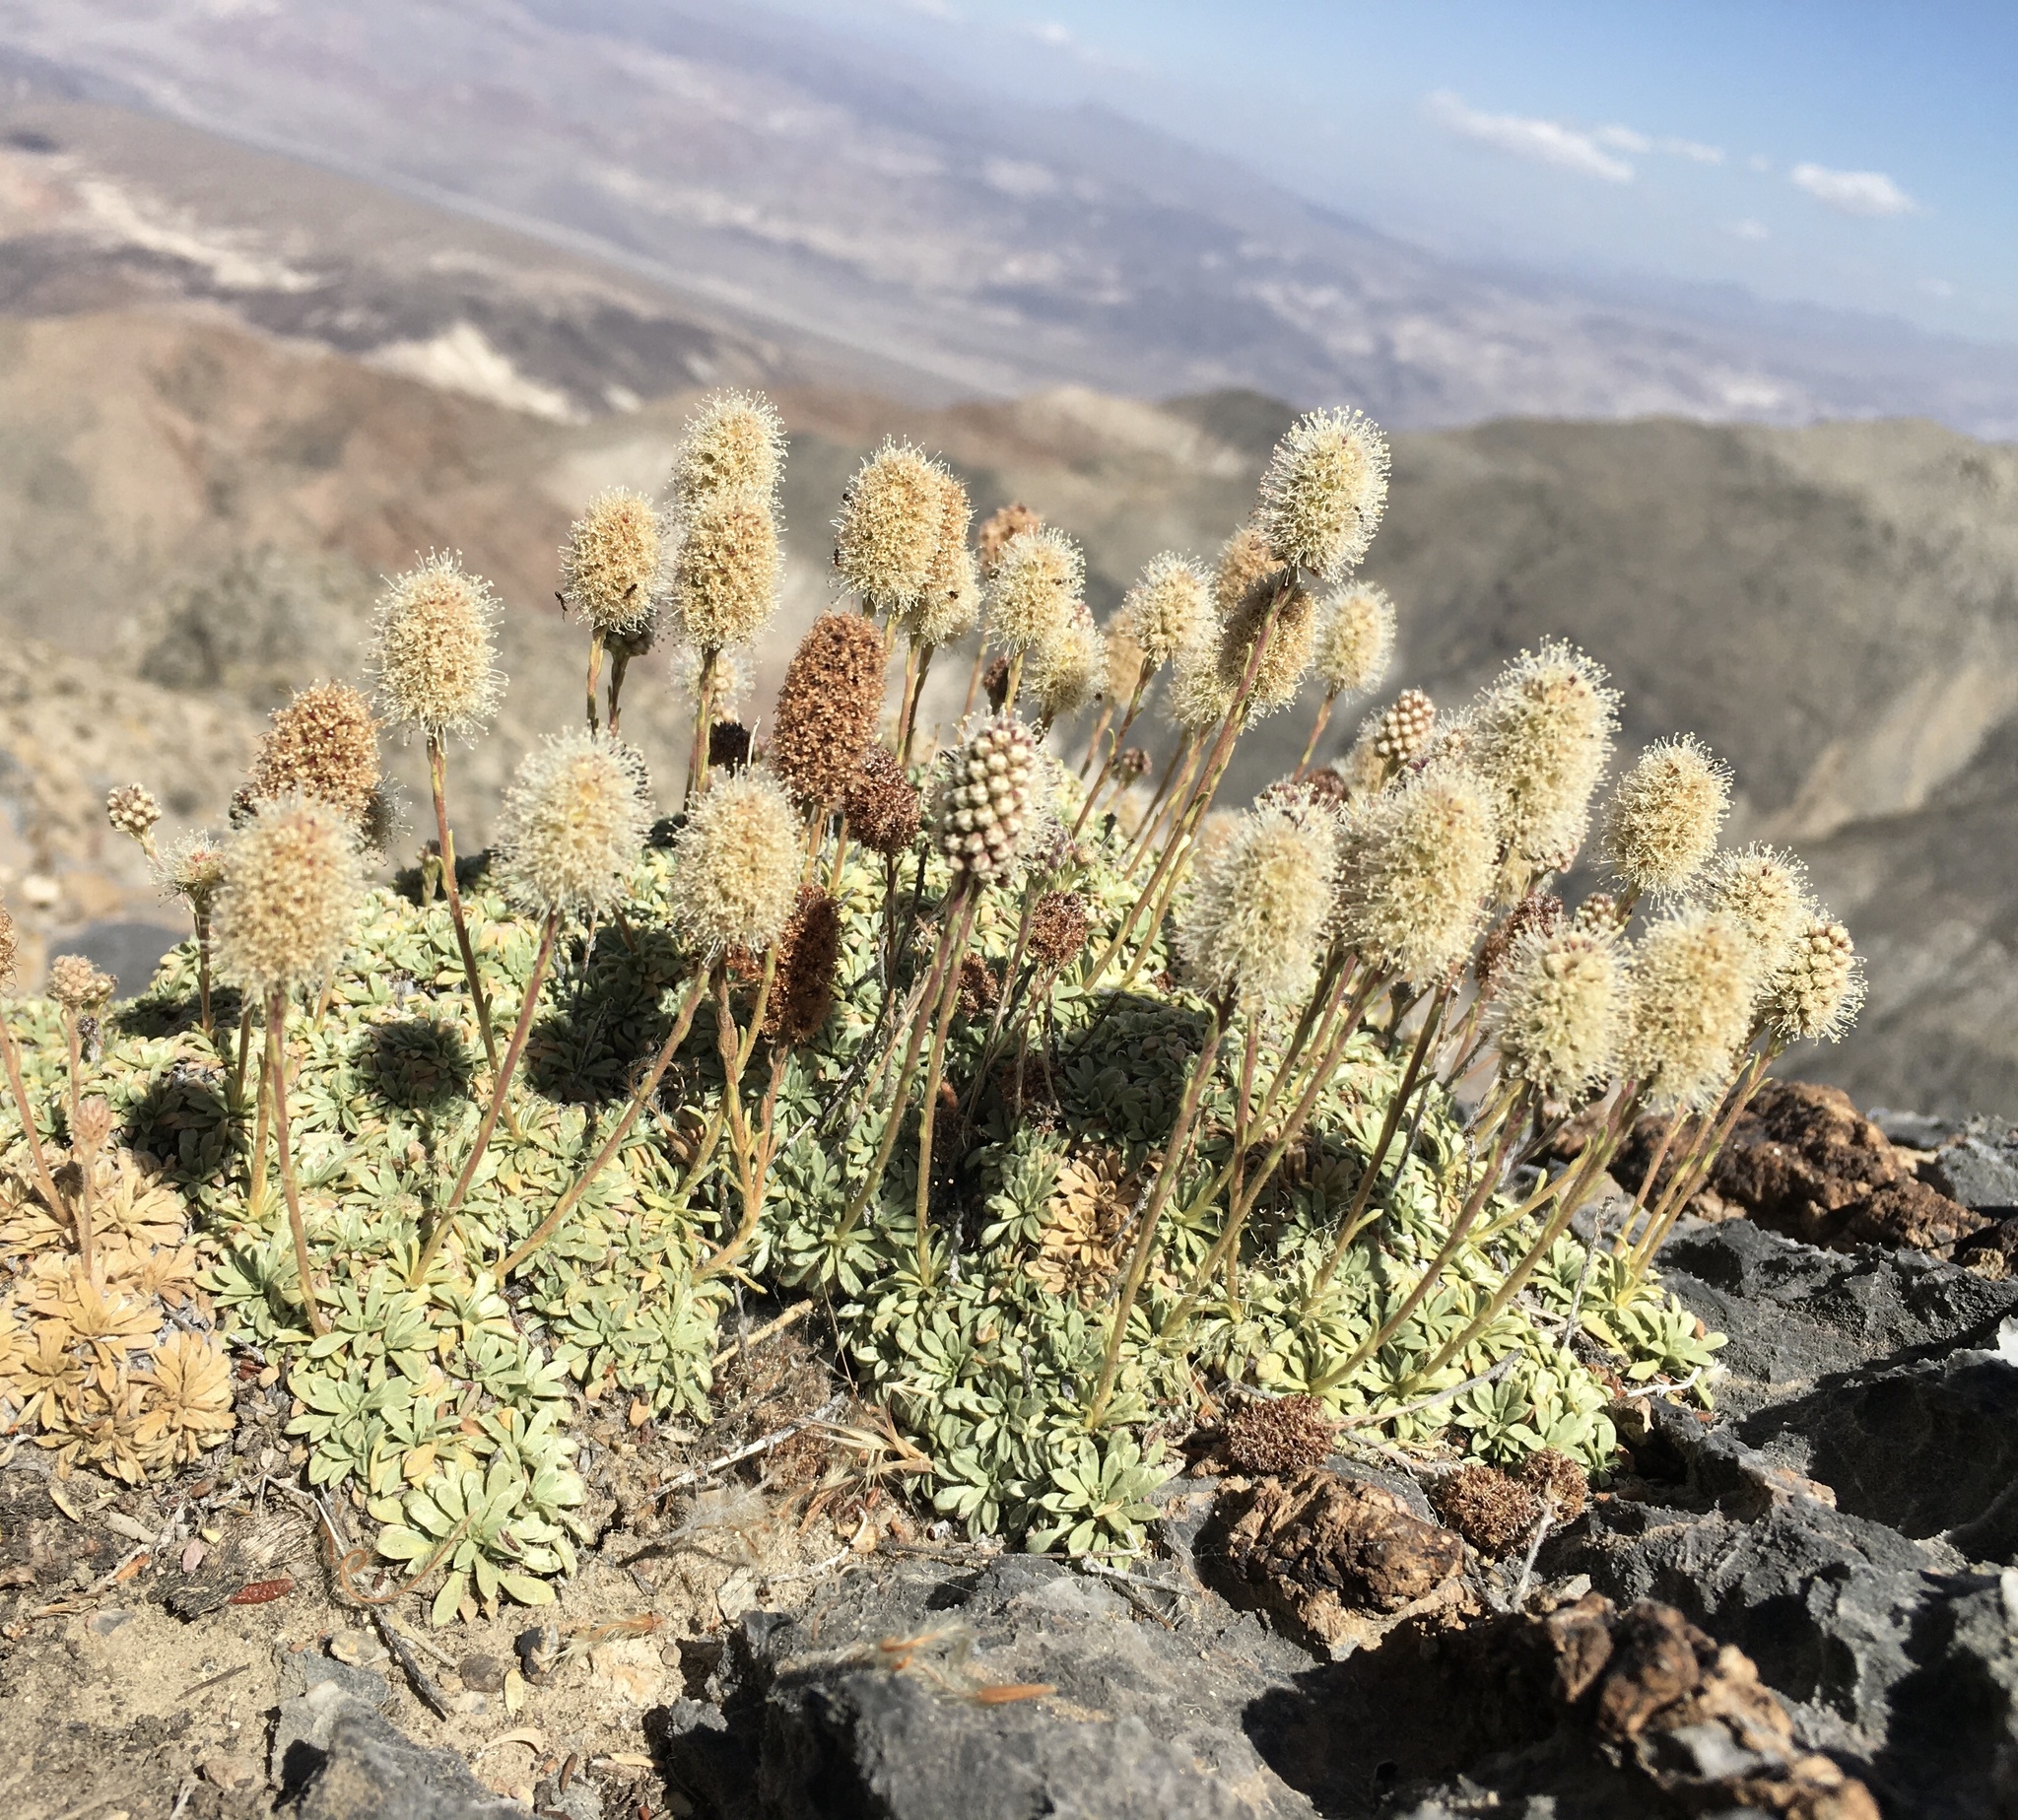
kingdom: Plantae
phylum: Tracheophyta
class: Magnoliopsida
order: Rosales
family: Rosaceae
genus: Petrophytum
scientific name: Petrophytum caespitosum
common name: Mat rockspirea
